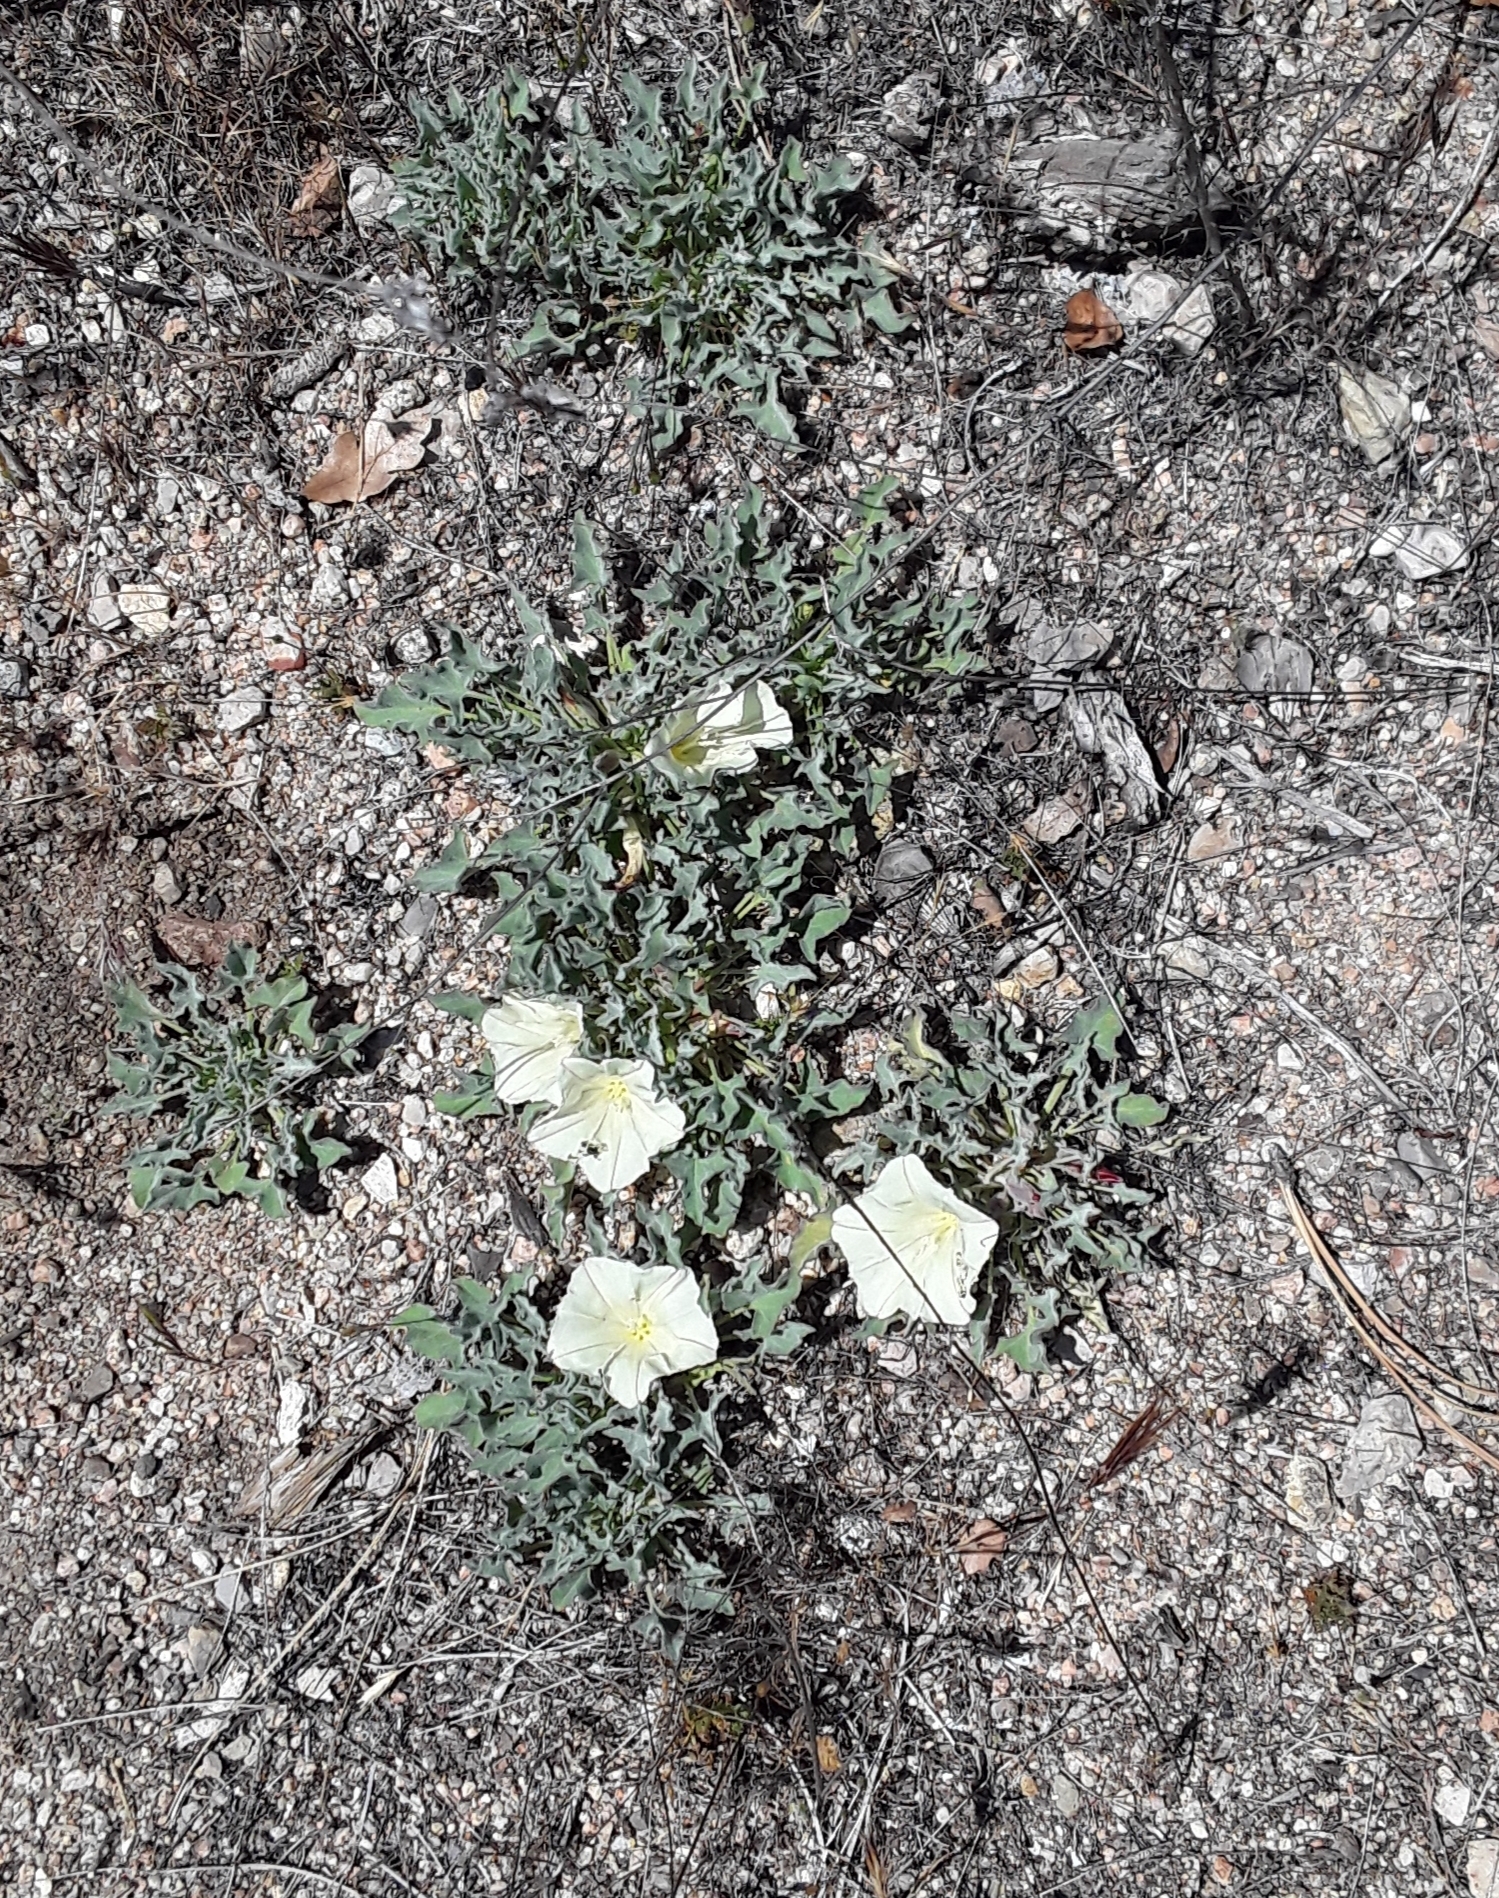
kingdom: Plantae
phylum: Tracheophyta
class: Magnoliopsida
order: Solanales
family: Convolvulaceae
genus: Calystegia
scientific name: Calystegia collina
